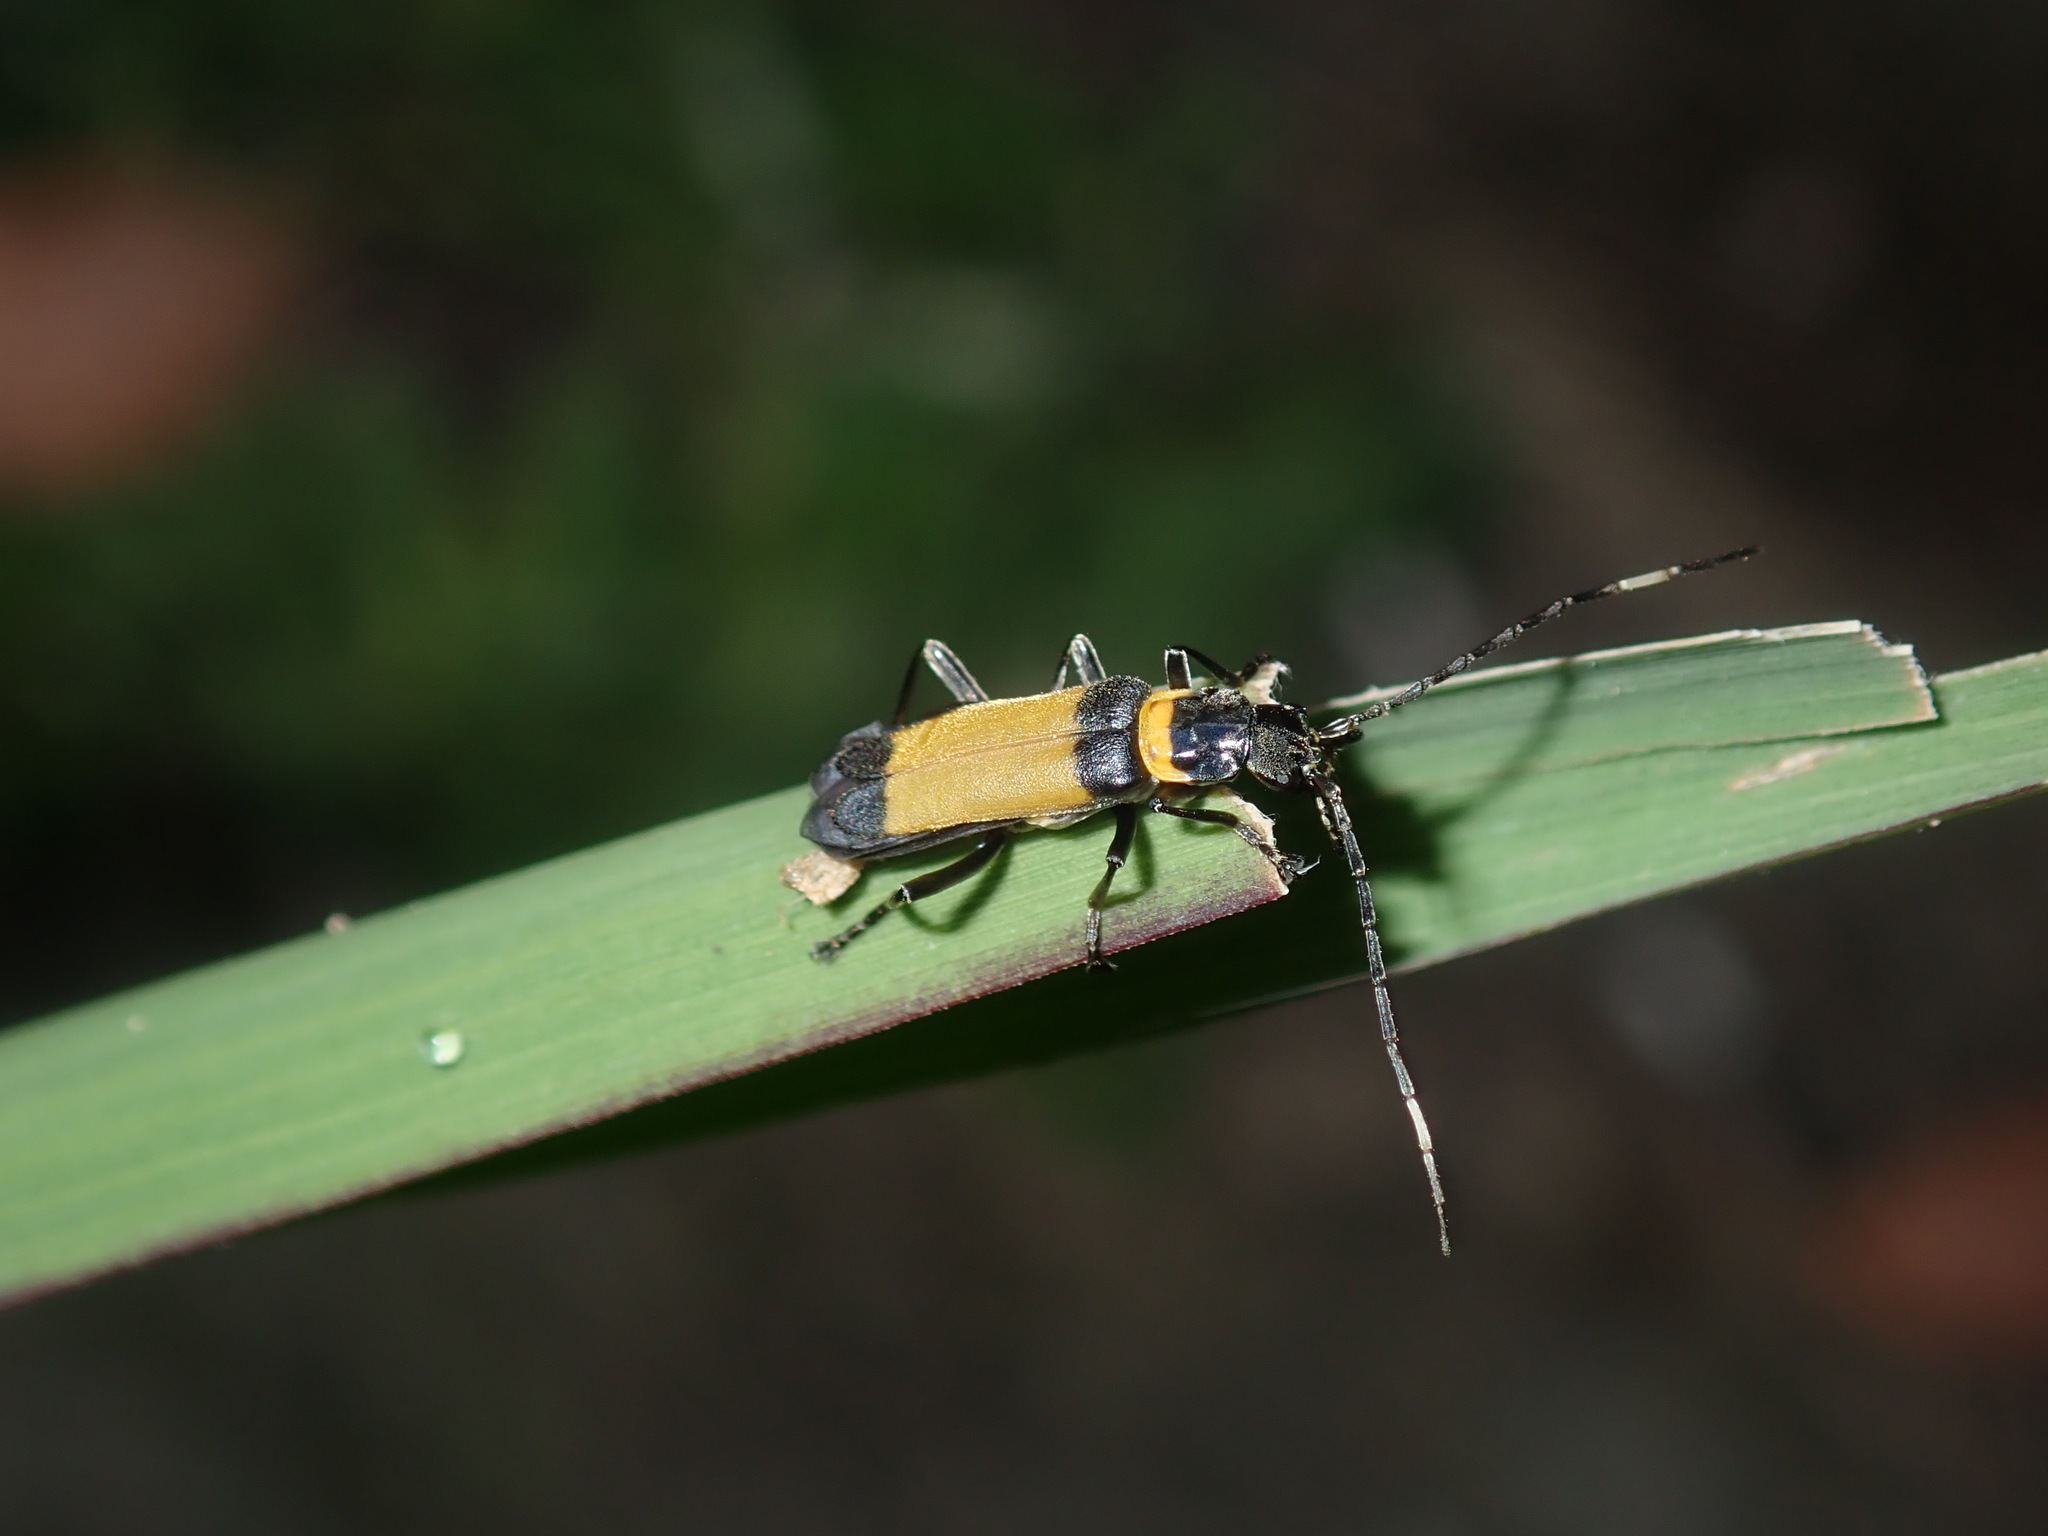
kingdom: Animalia
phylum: Arthropoda
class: Insecta
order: Coleoptera
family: Cantharidae
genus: Chauliognathus
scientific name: Chauliognathus
